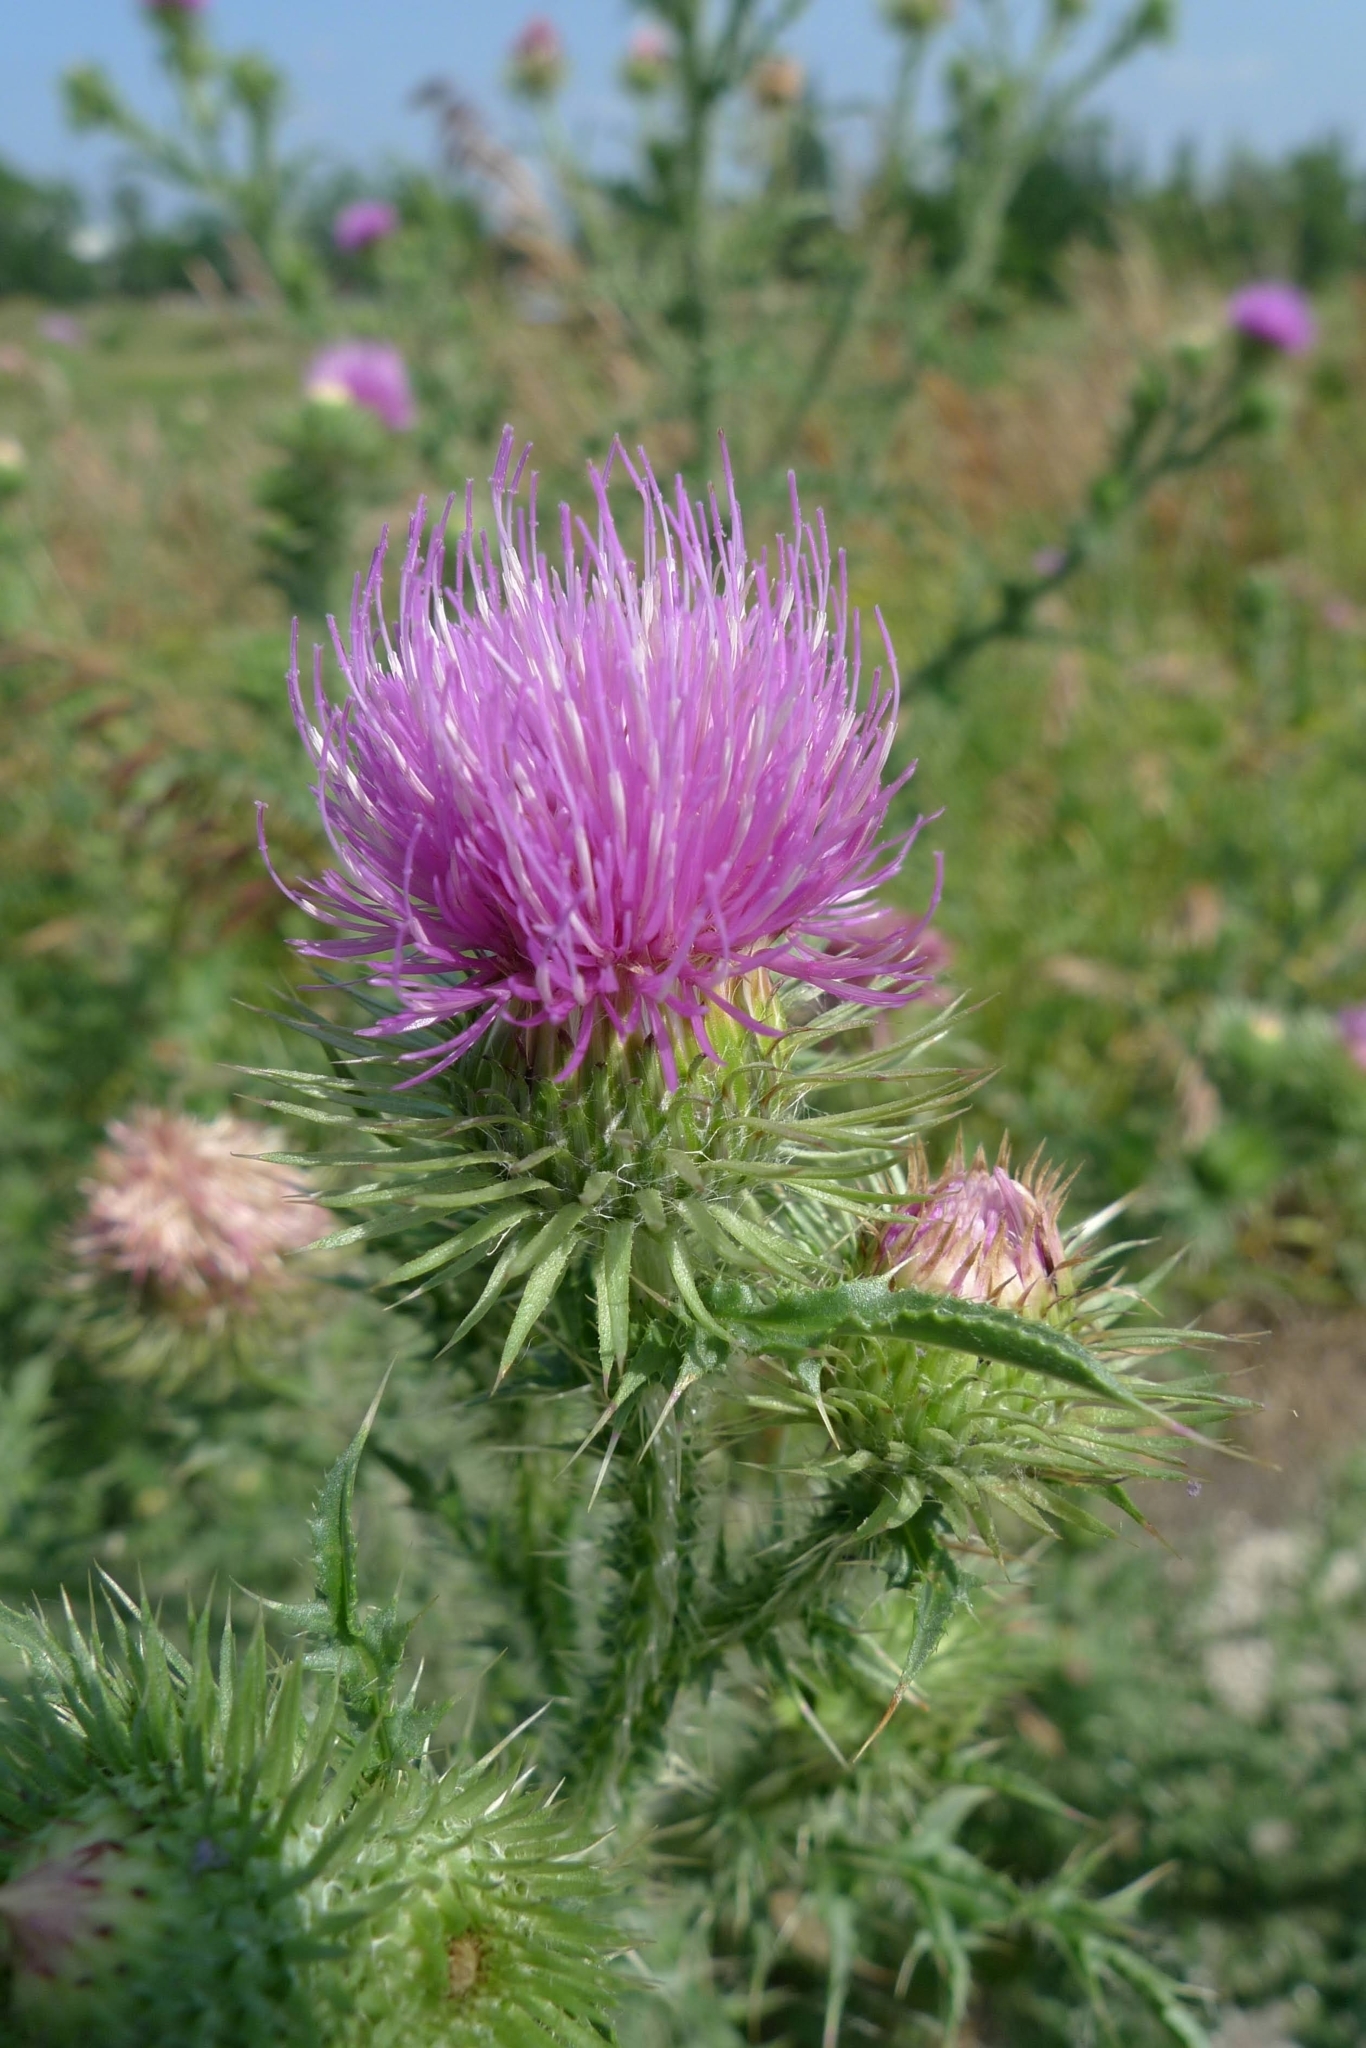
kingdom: Plantae
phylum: Tracheophyta
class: Magnoliopsida
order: Asterales
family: Asteraceae
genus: Carduus
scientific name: Carduus acanthoides
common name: Plumeless thistle
